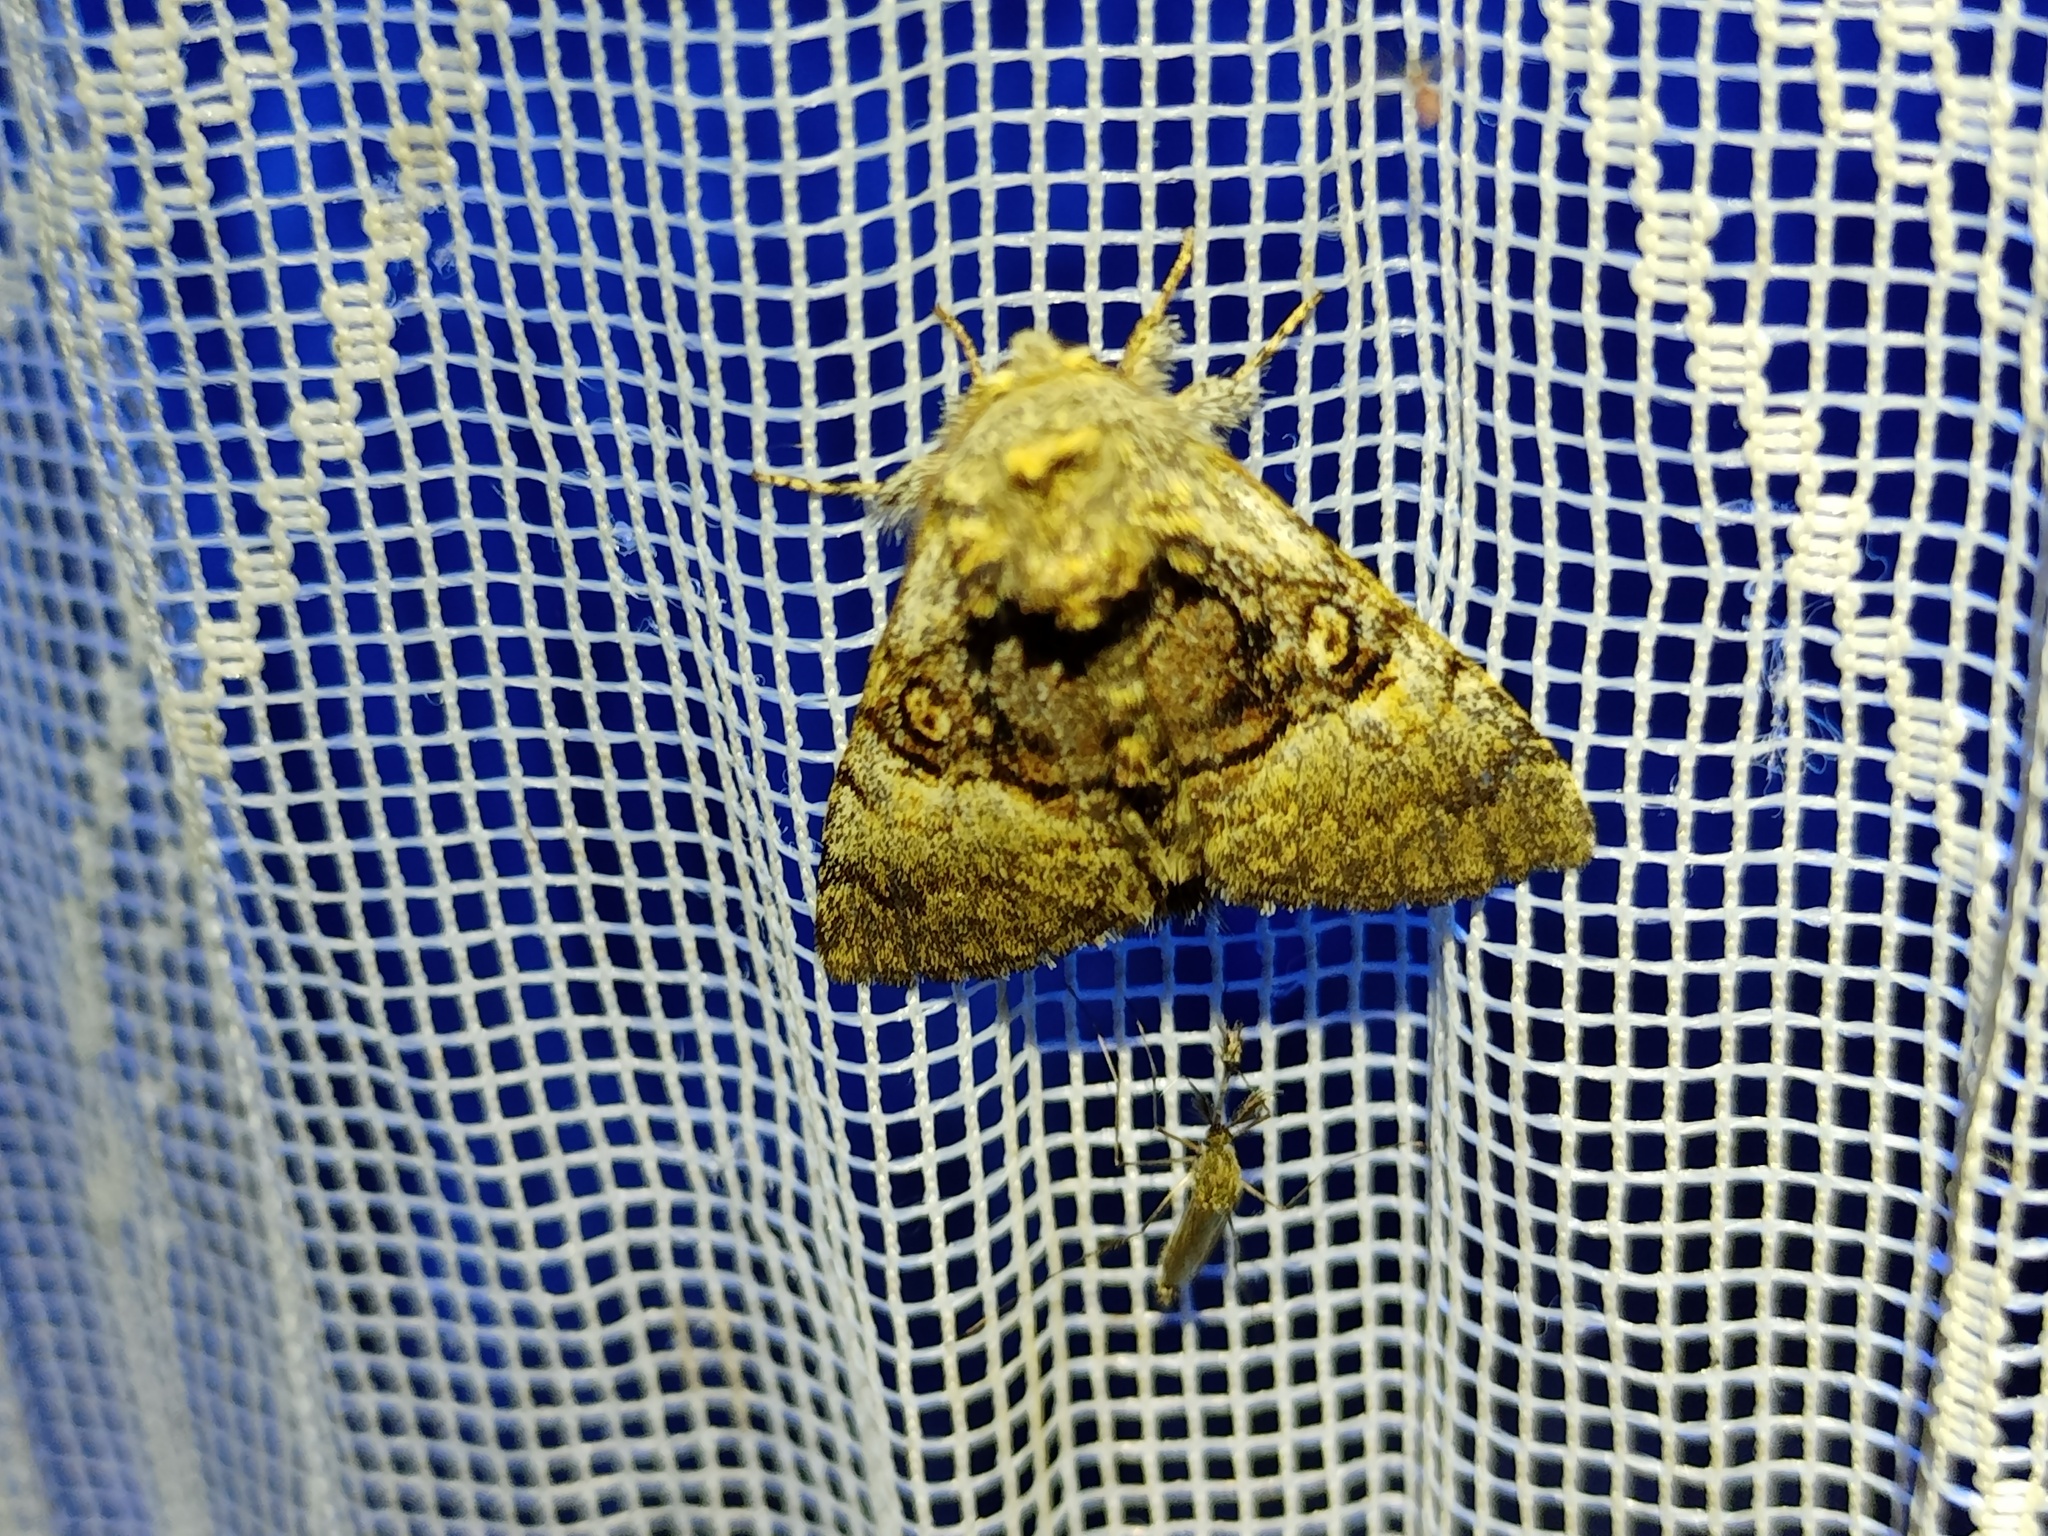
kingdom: Animalia
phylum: Arthropoda
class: Insecta
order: Lepidoptera
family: Noctuidae
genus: Colocasia
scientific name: Colocasia coryli
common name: Nut-tree tussock
